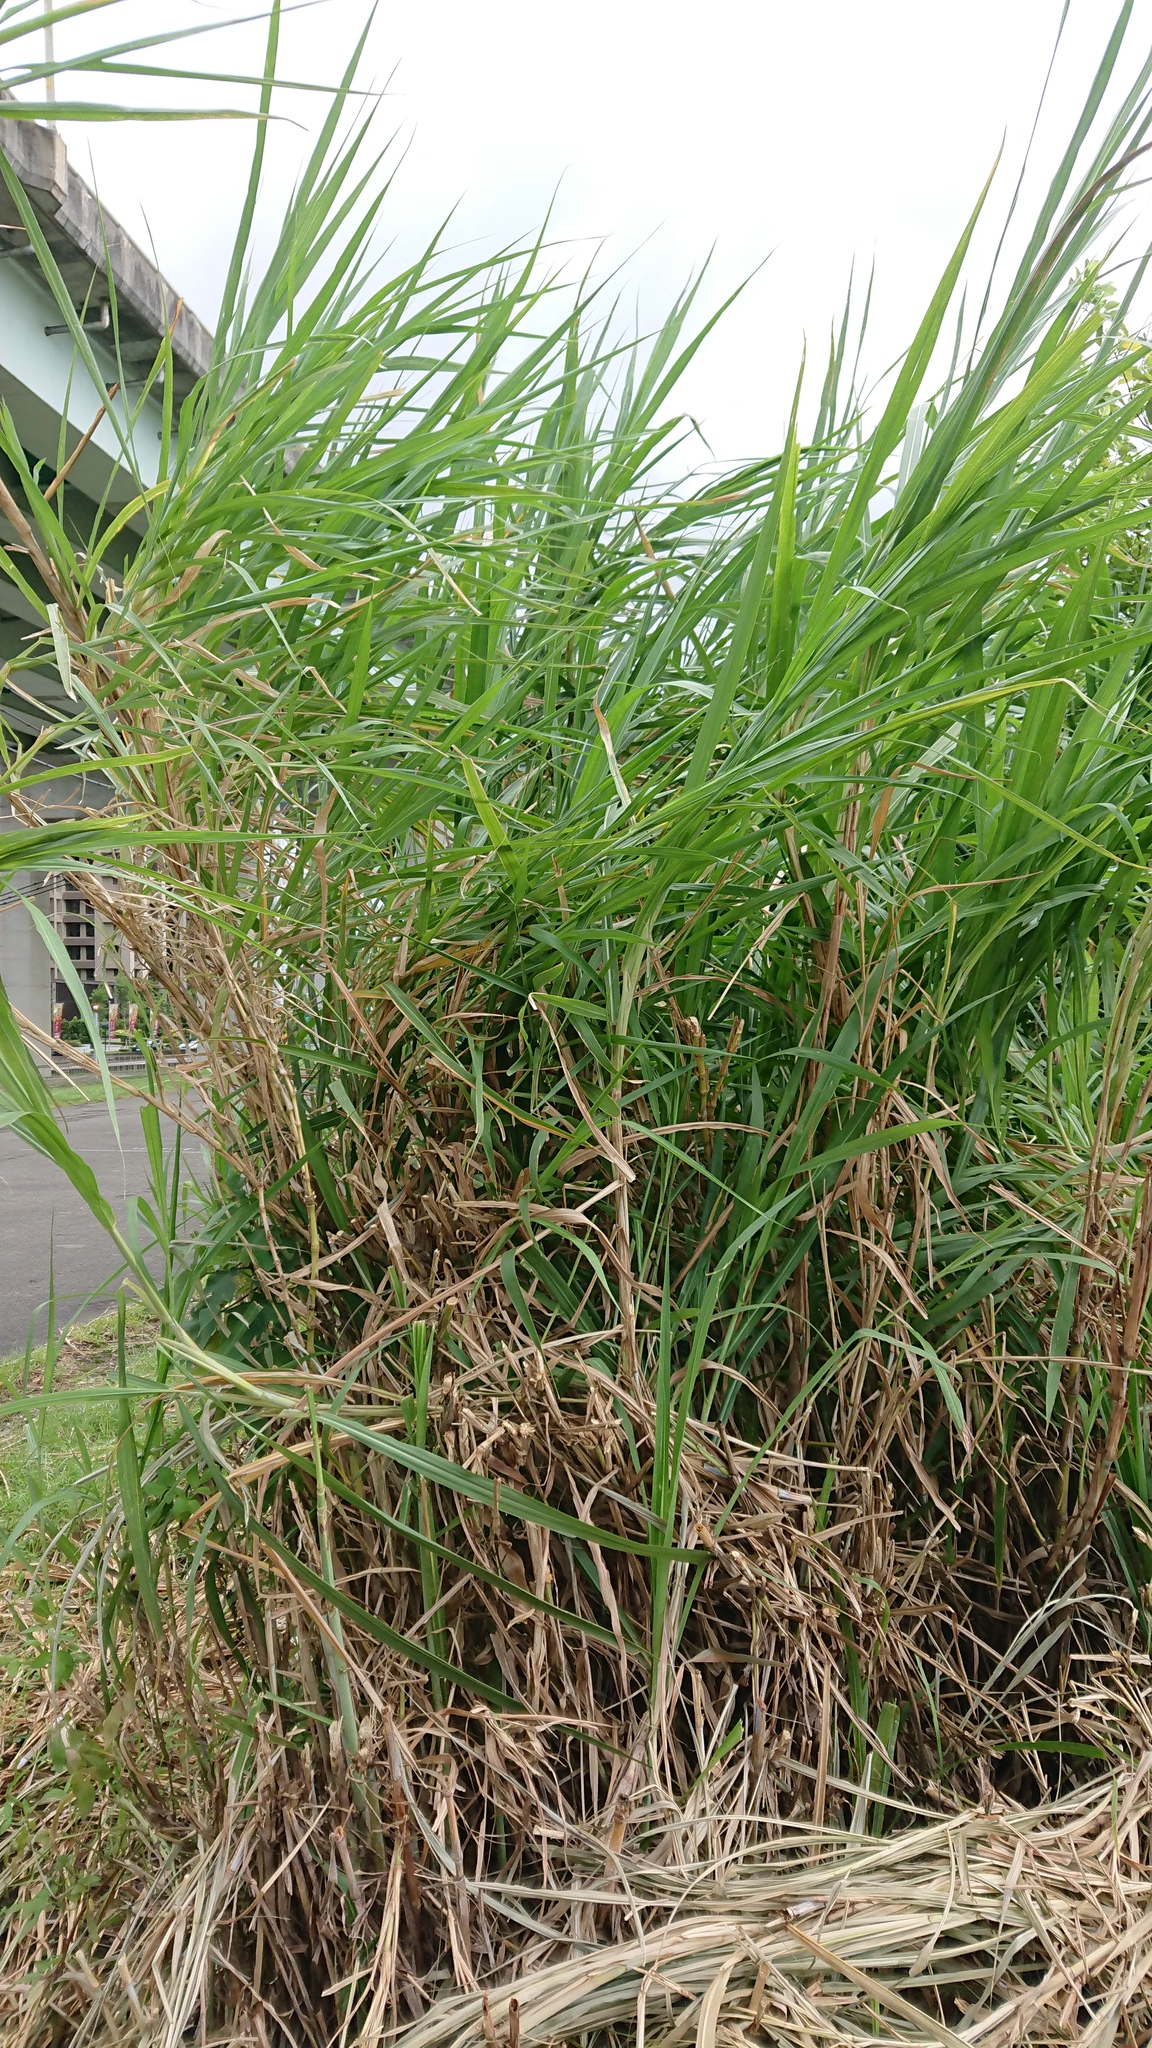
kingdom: Plantae
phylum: Tracheophyta
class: Liliopsida
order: Poales
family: Poaceae
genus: Cenchrus
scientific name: Cenchrus purpureus
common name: Elephant grass
